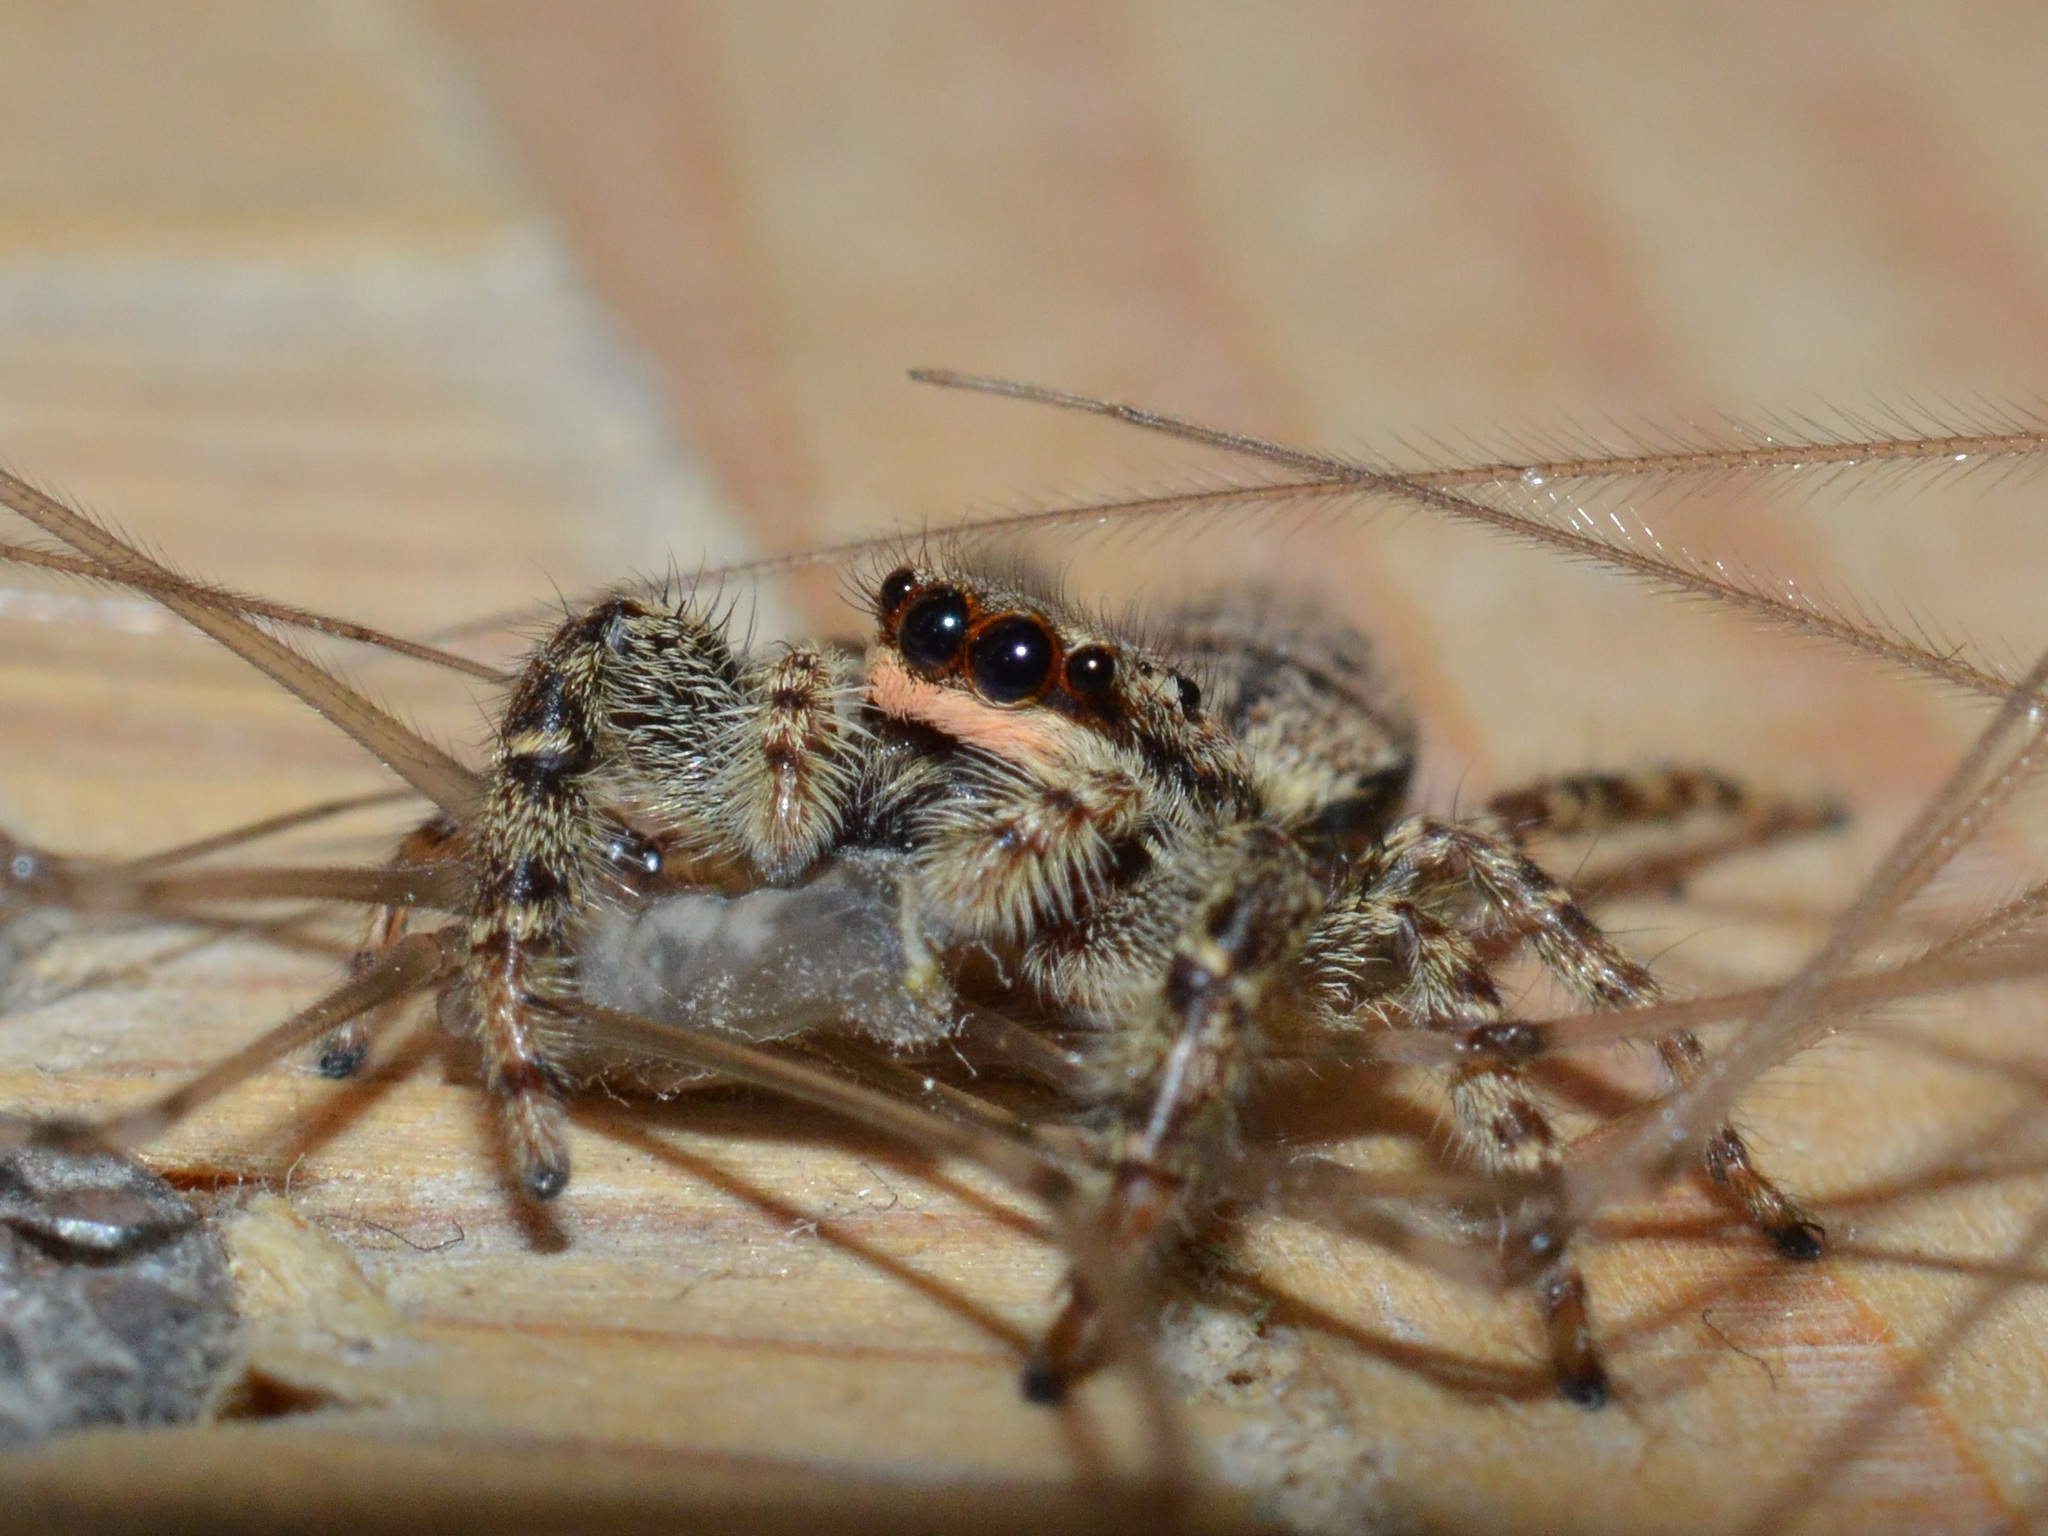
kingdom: Animalia
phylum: Arthropoda
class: Arachnida
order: Araneae
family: Salticidae
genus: Marpissa
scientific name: Marpissa muscosa
